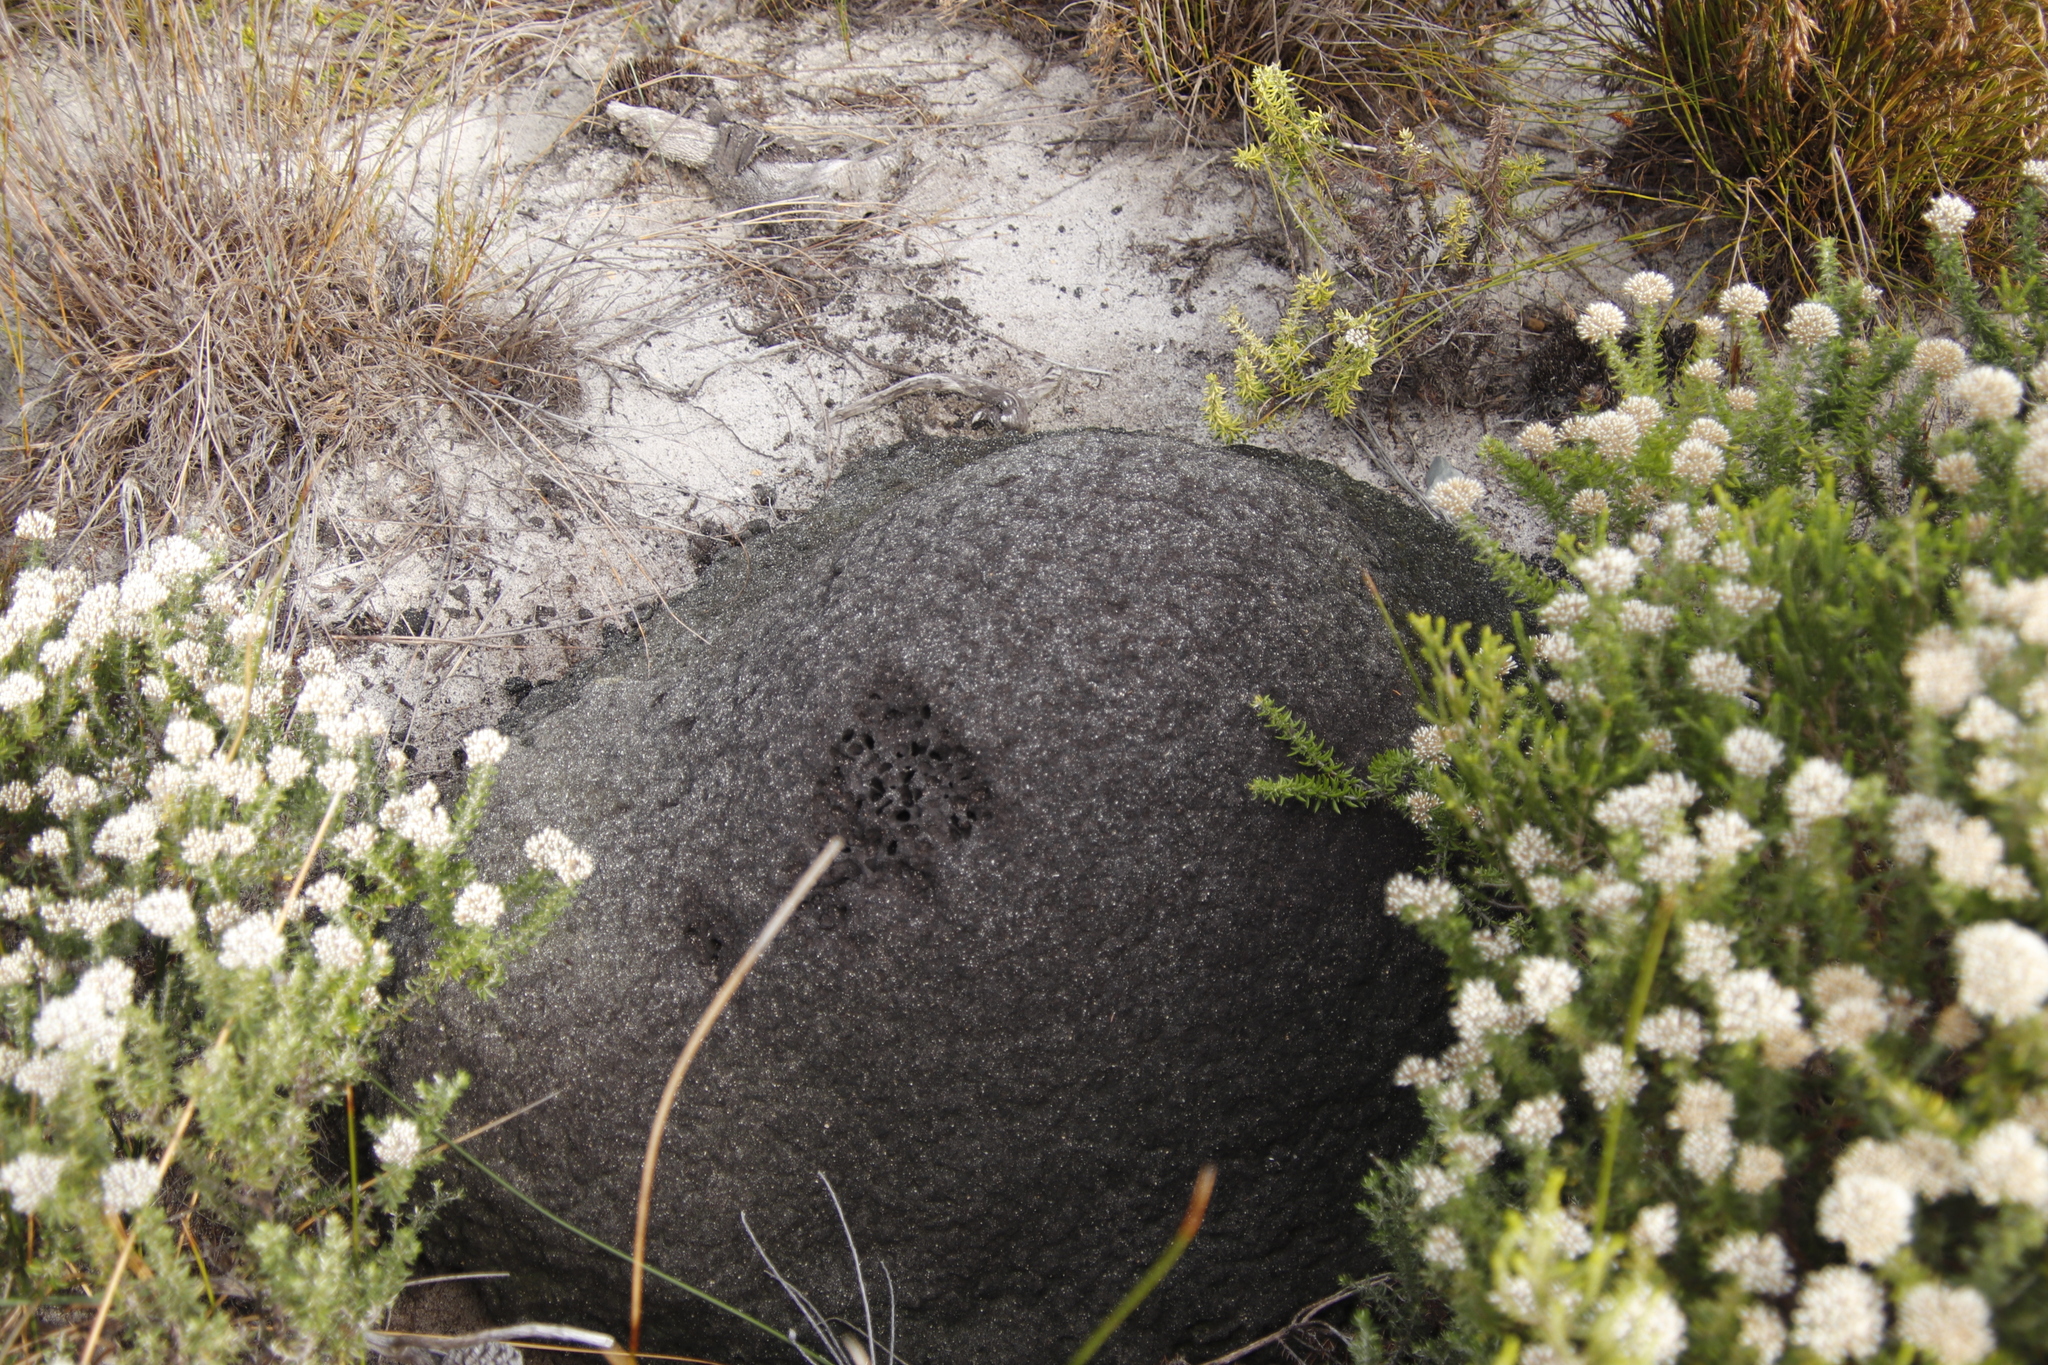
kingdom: Animalia
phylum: Arthropoda
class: Insecta
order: Blattodea
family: Termitidae
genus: Amitermes
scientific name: Amitermes hastatus
